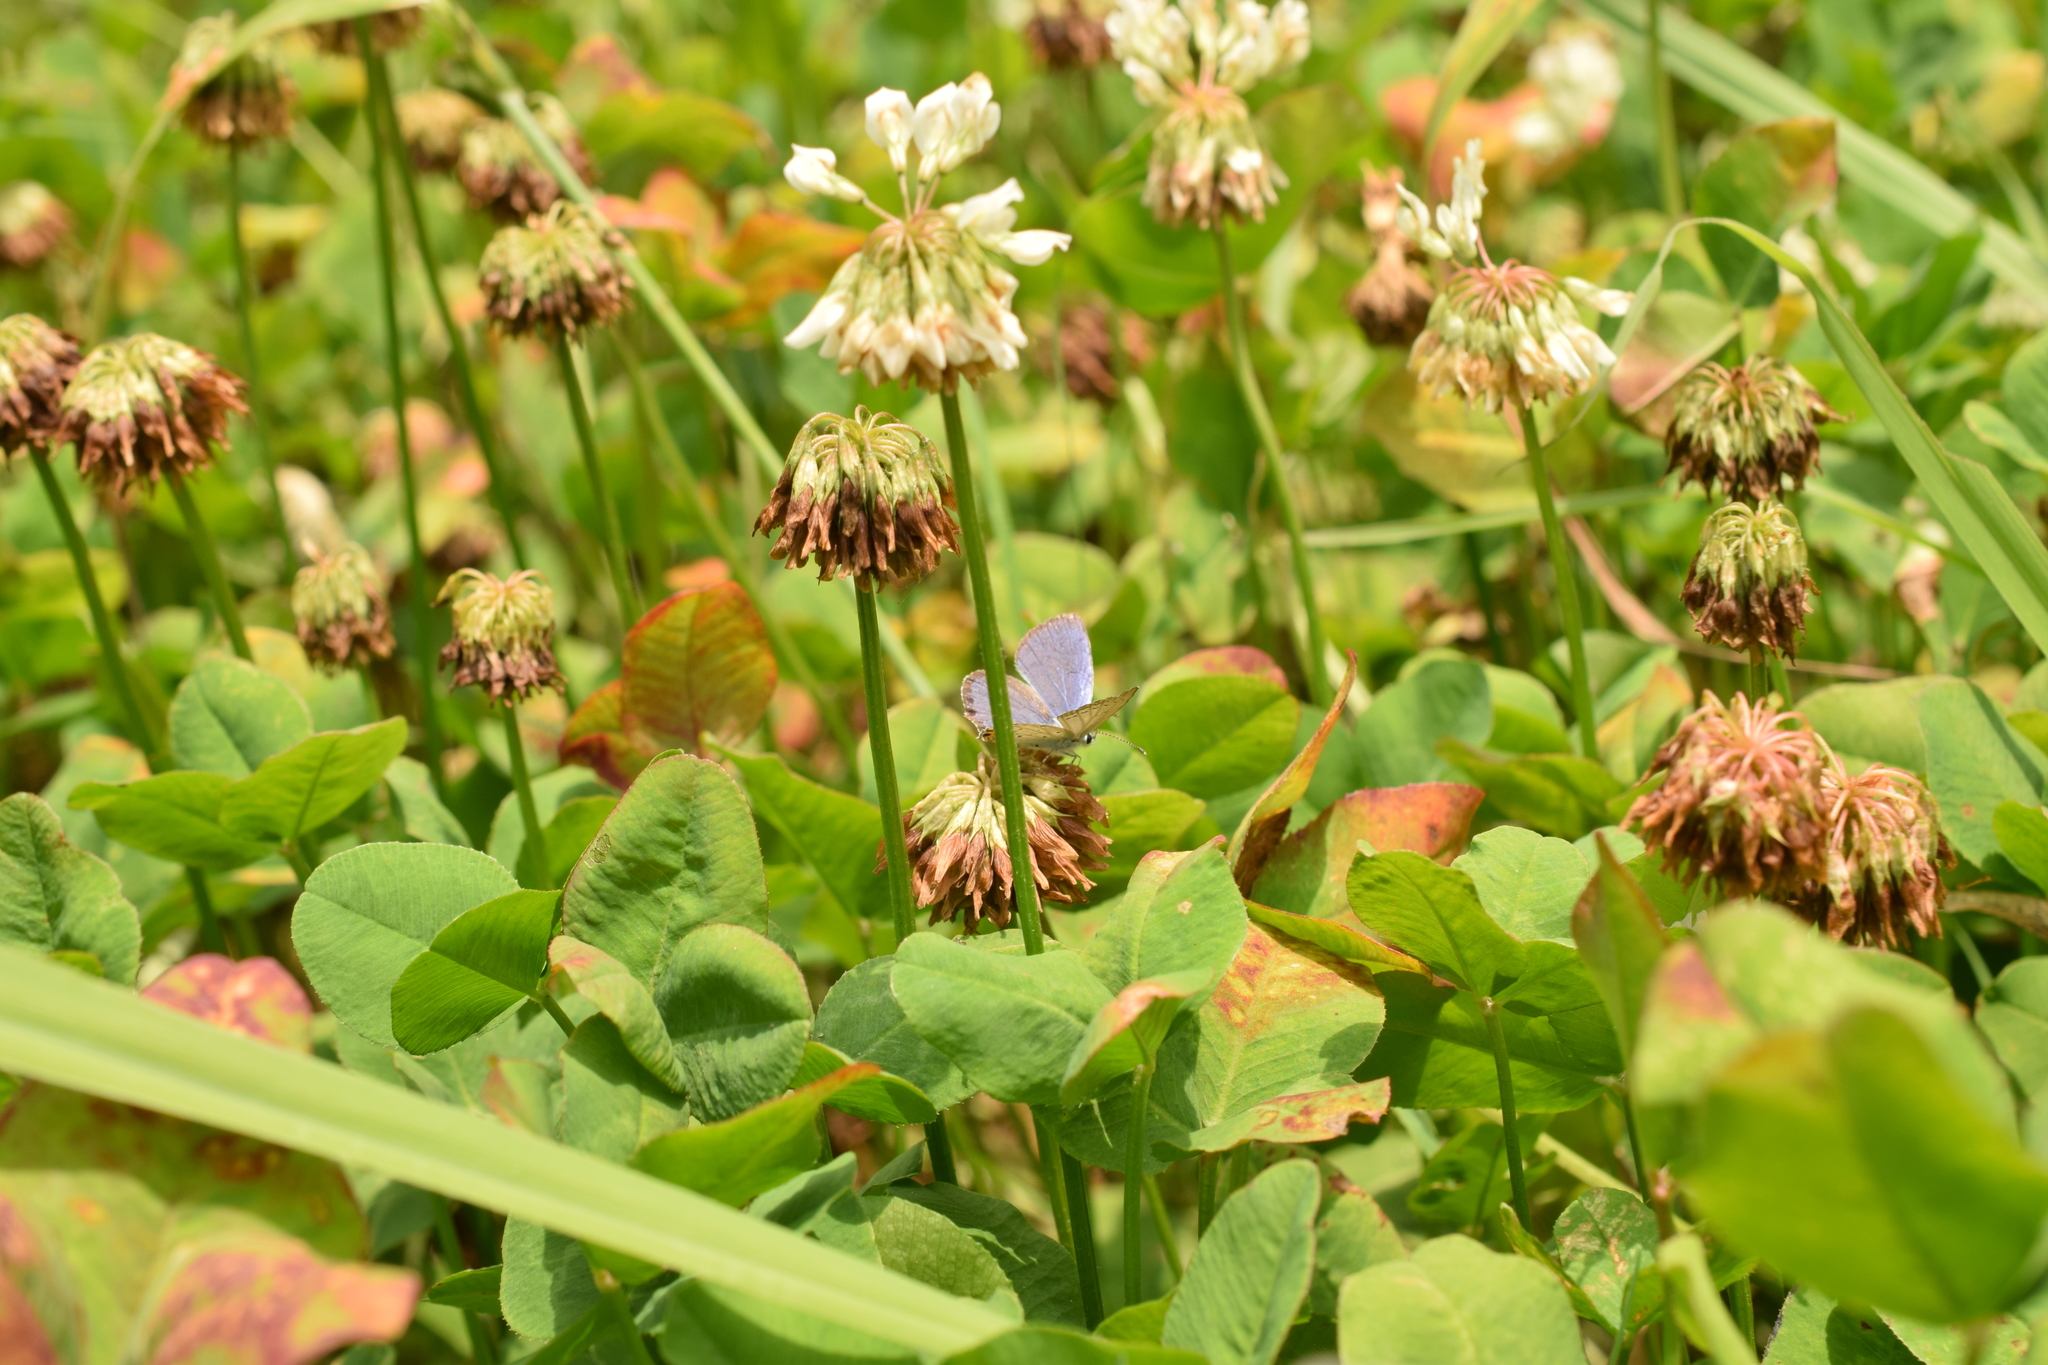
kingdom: Animalia
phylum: Arthropoda
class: Insecta
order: Lepidoptera
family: Lycaenidae
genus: Elkalyce
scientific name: Elkalyce argiades
